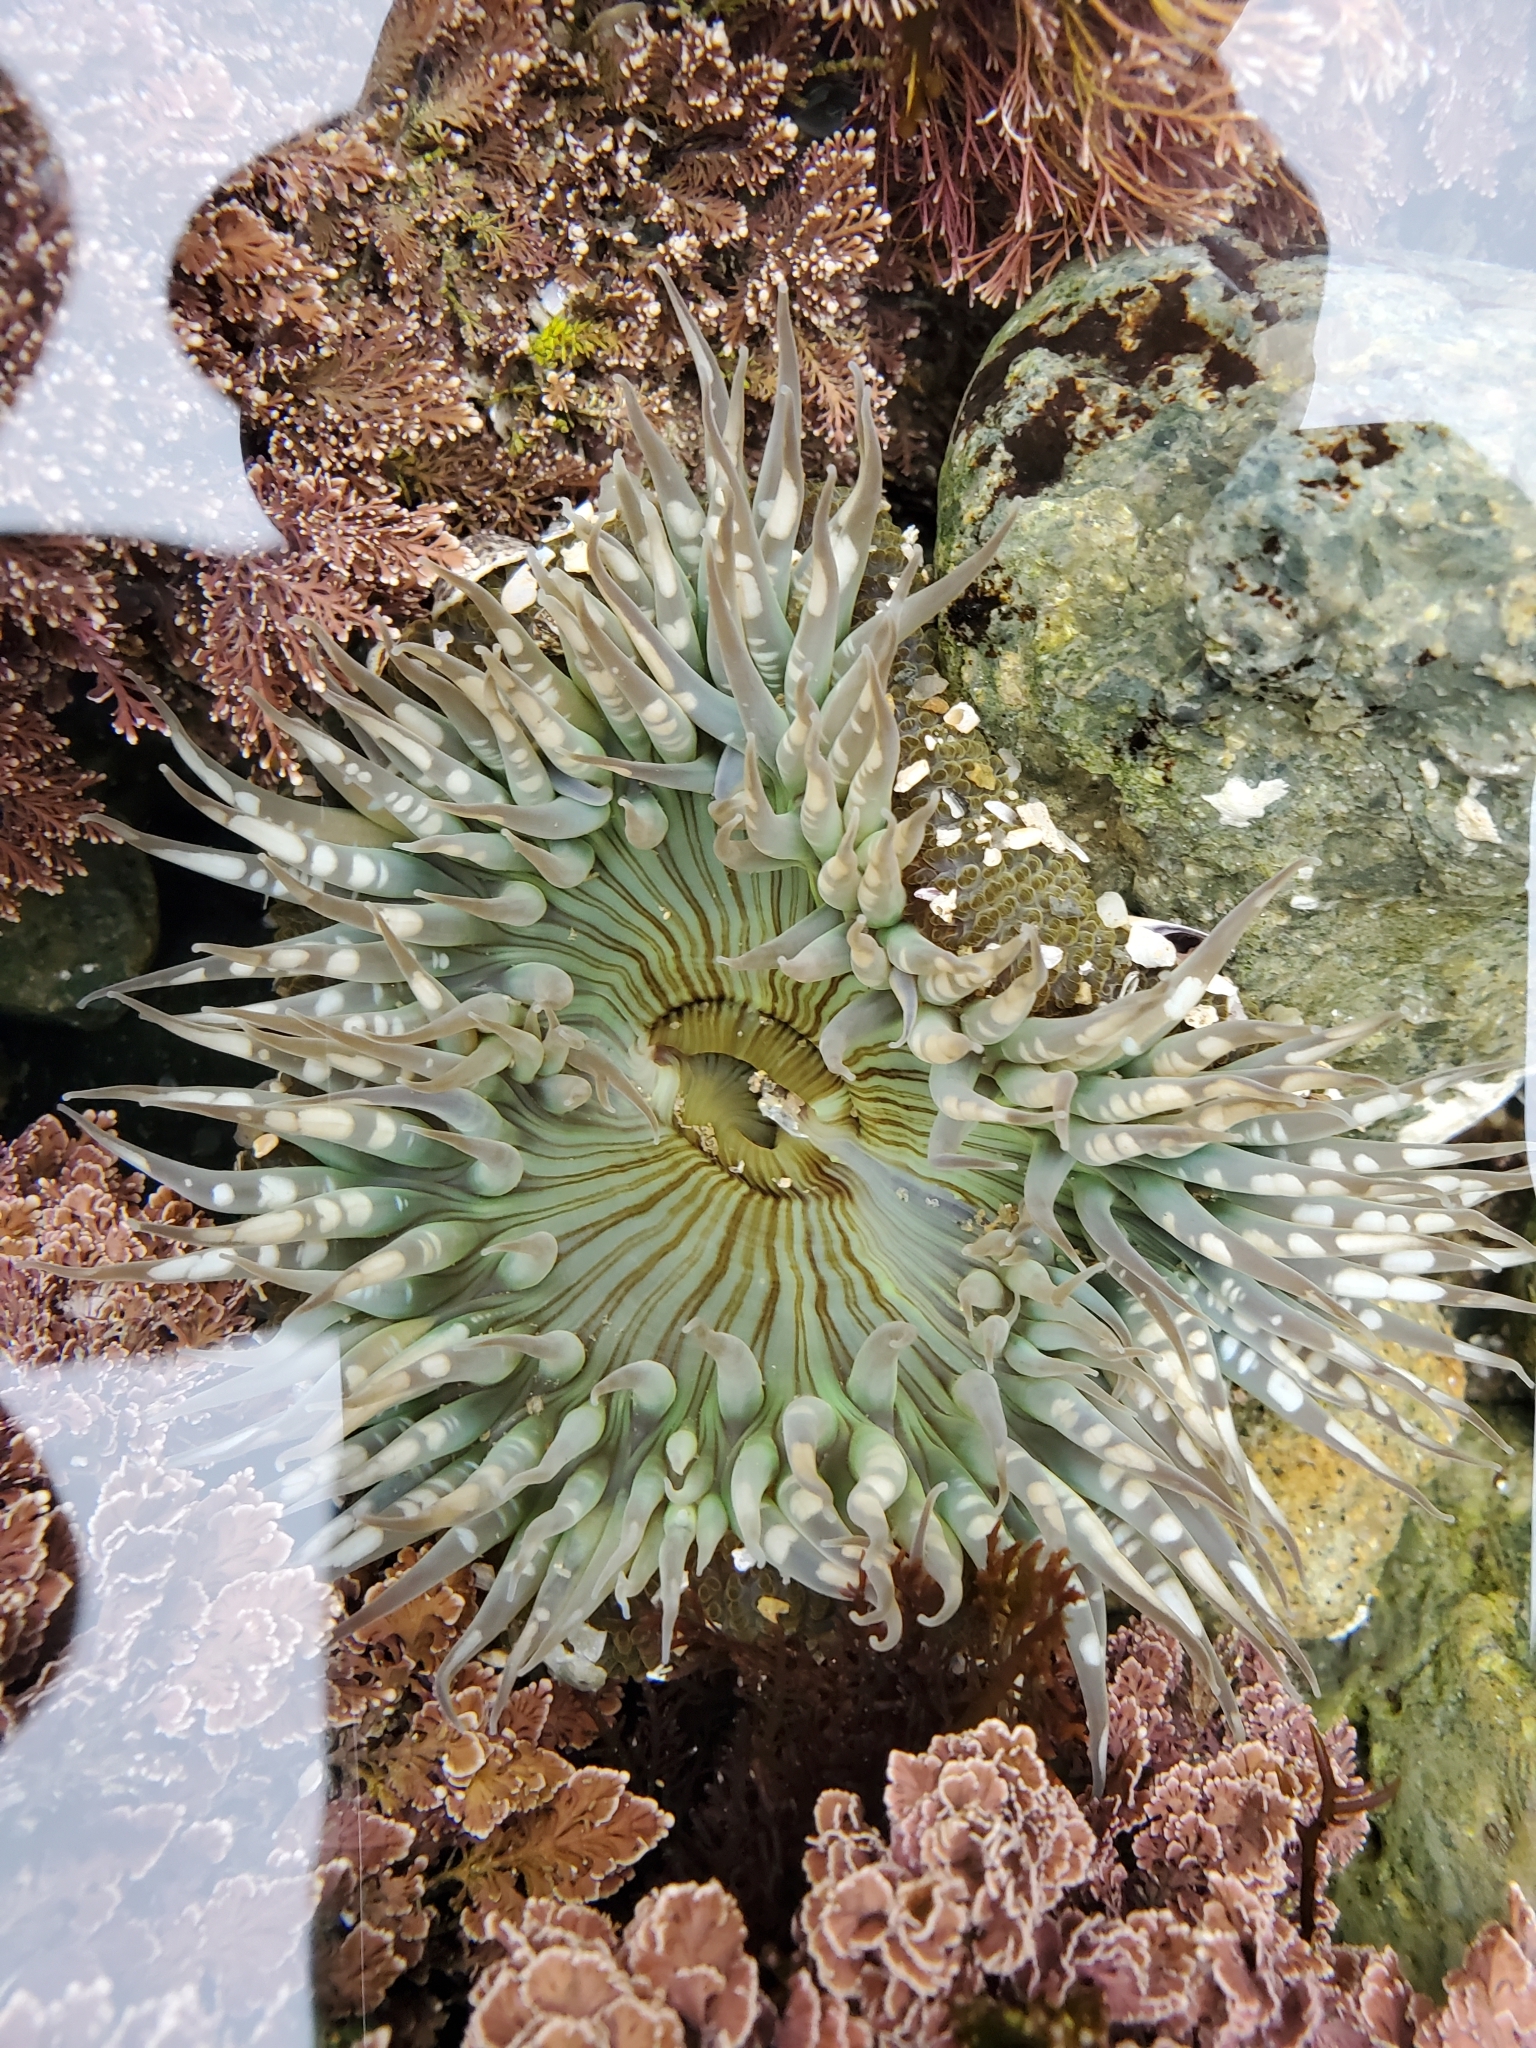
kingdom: Animalia
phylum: Cnidaria
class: Anthozoa
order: Actiniaria
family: Actiniidae
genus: Anthopleura
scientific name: Anthopleura sola
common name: Sun anemone
